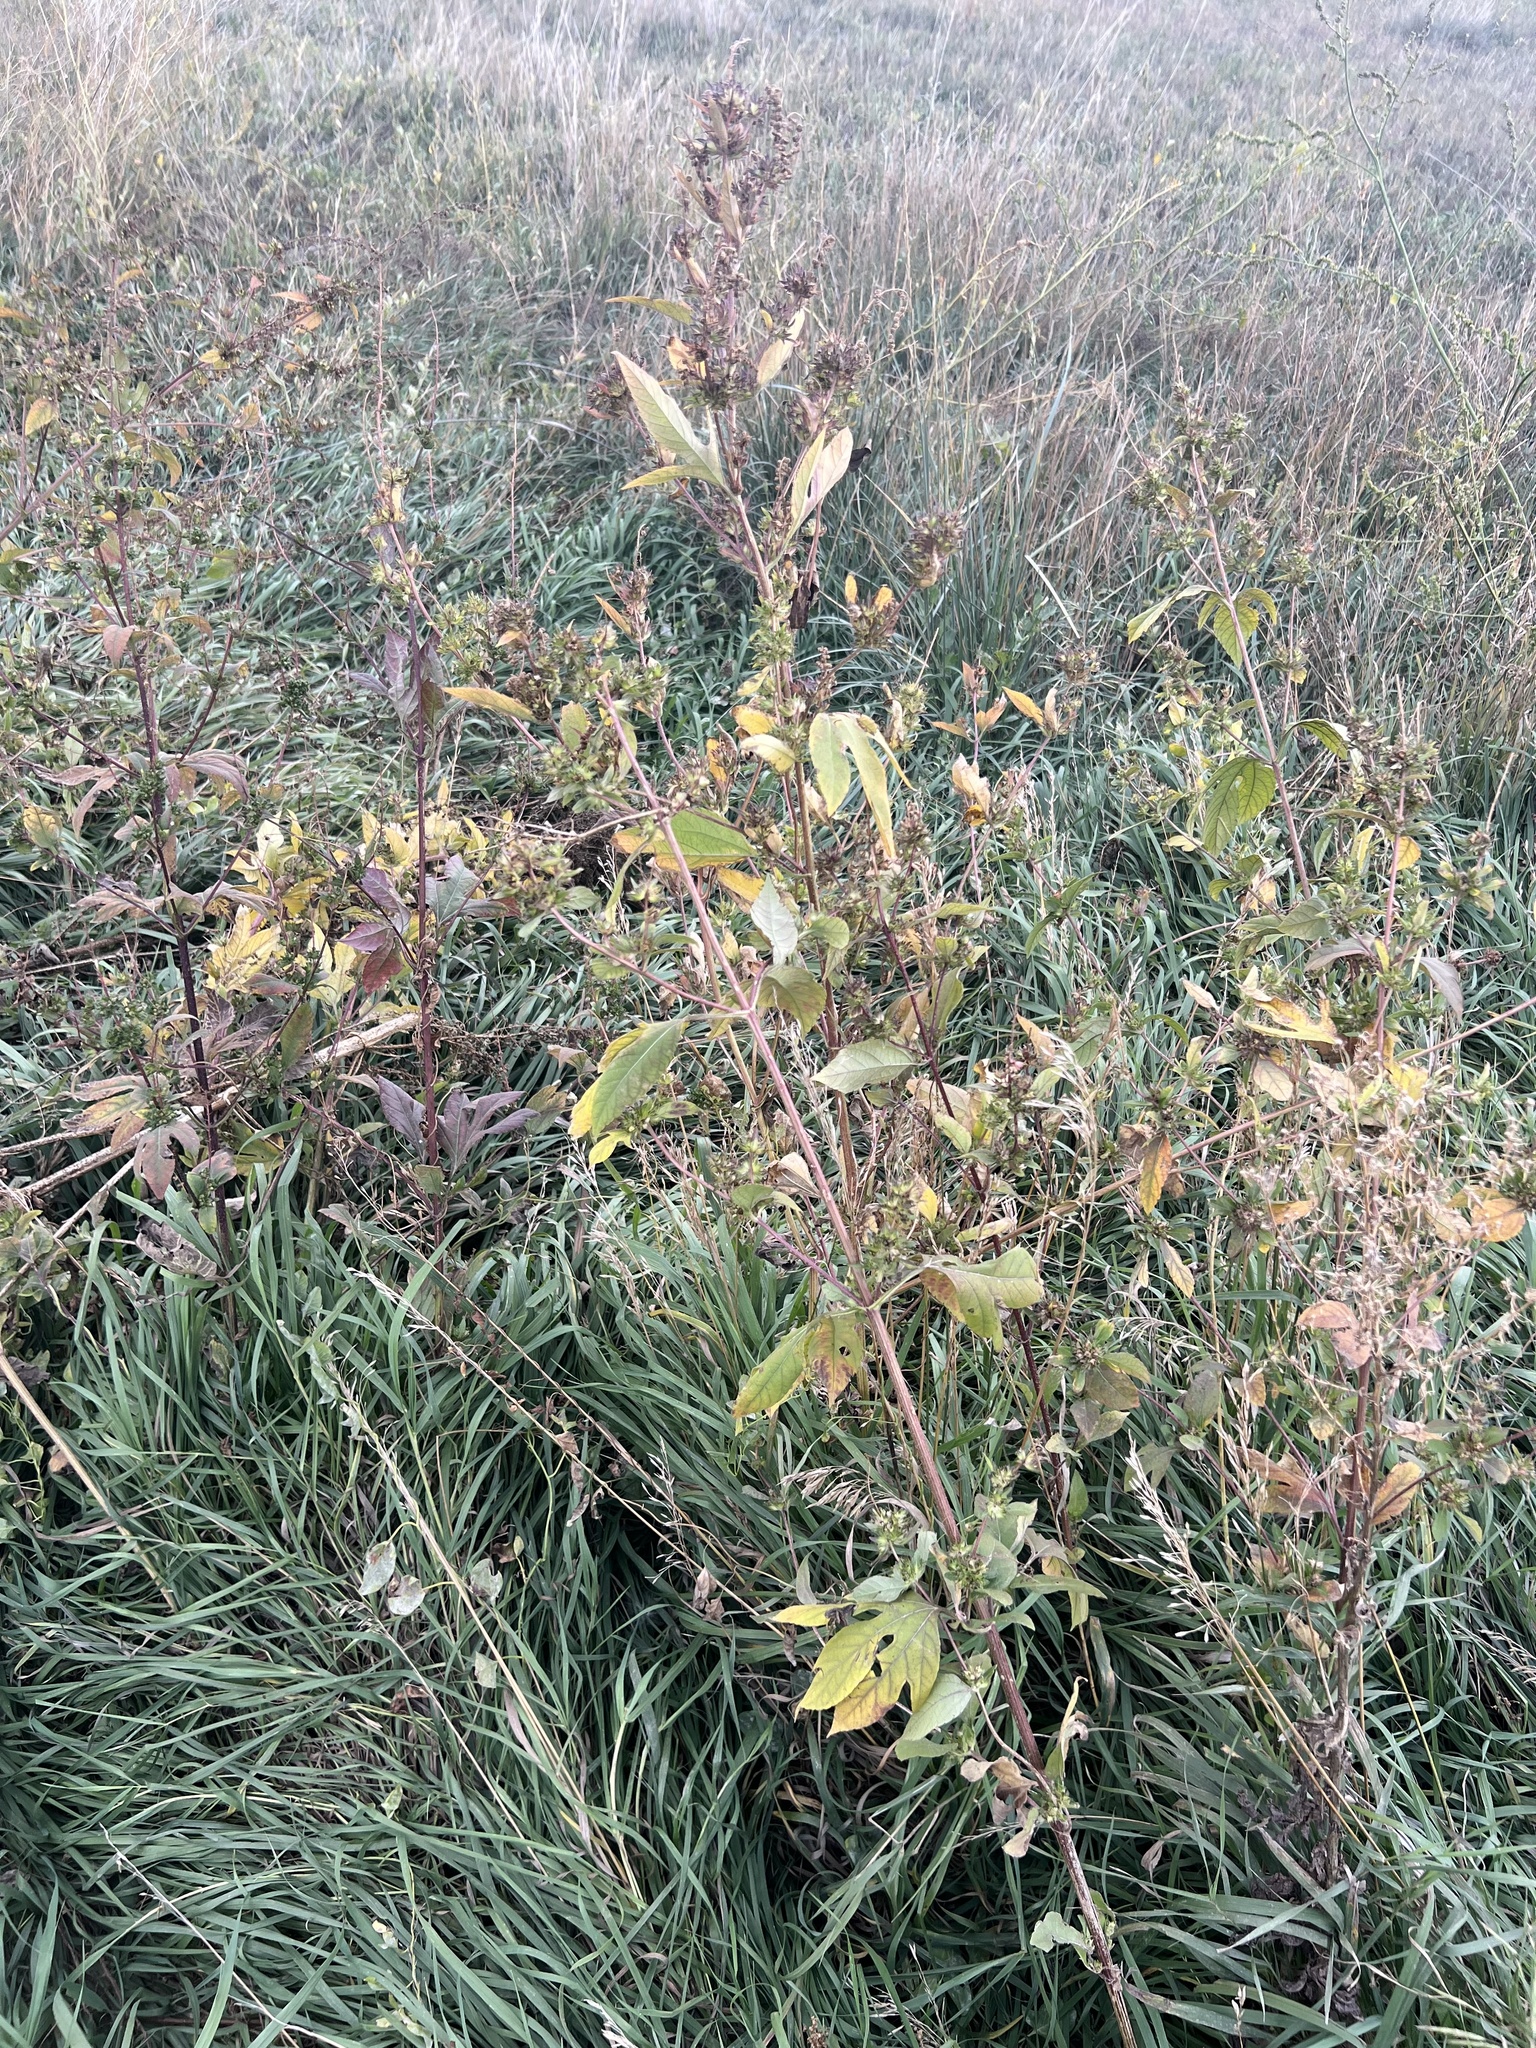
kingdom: Plantae
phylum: Tracheophyta
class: Magnoliopsida
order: Asterales
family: Asteraceae
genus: Ambrosia
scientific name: Ambrosia trifida
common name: Giant ragweed
